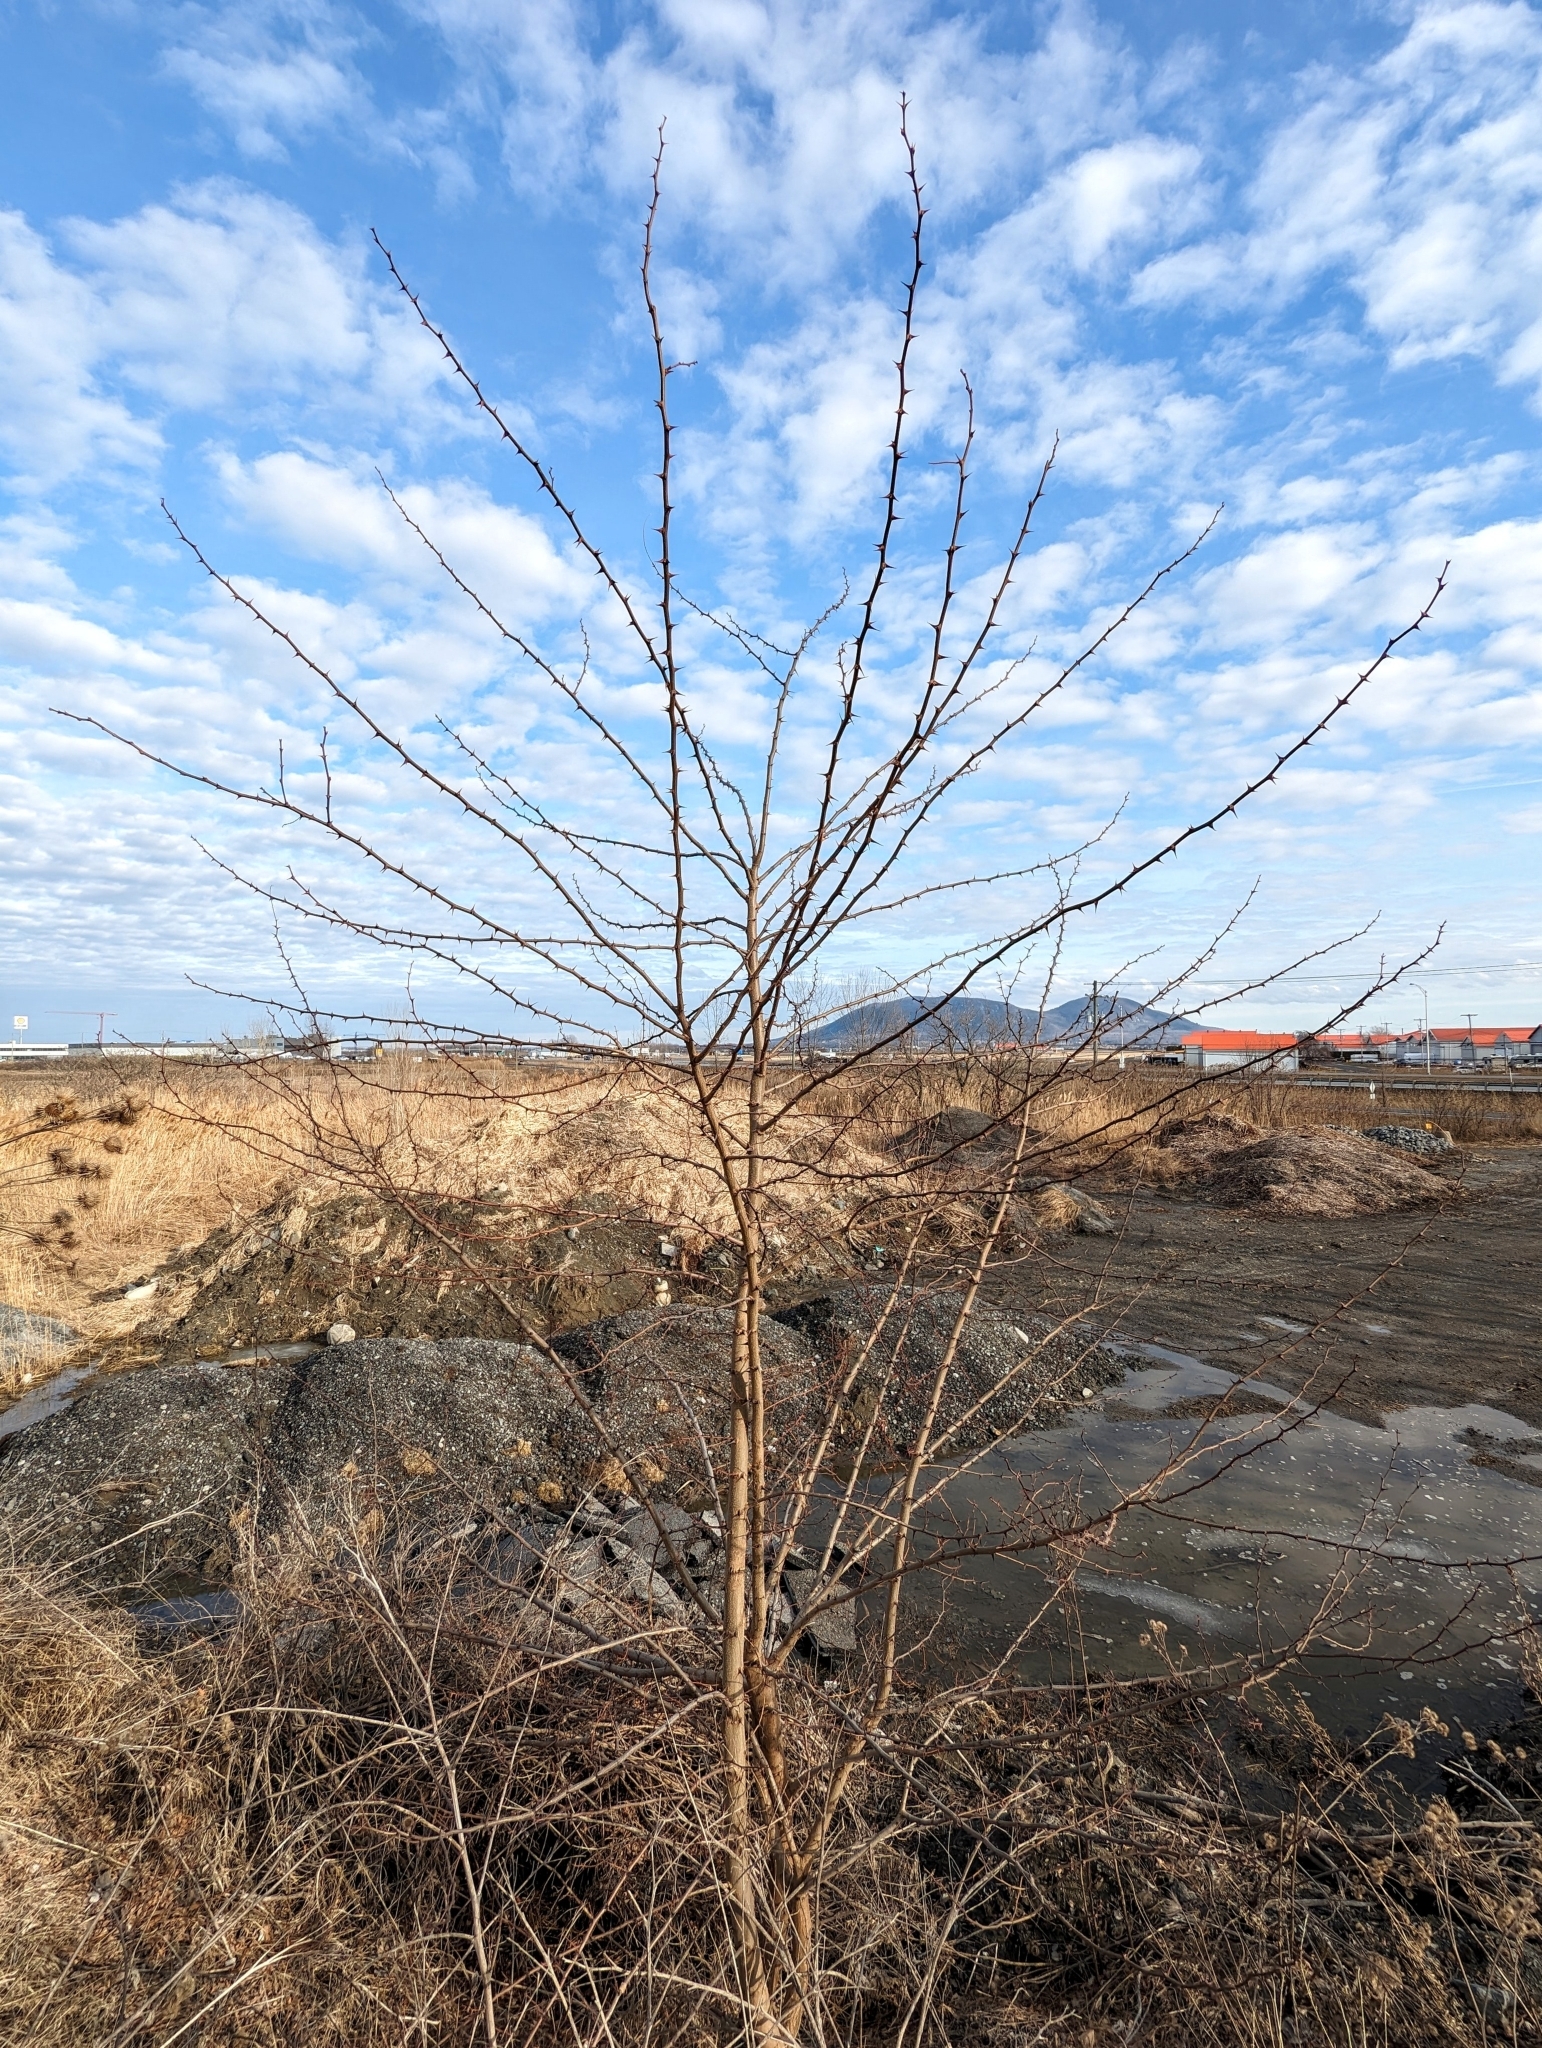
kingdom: Plantae
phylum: Tracheophyta
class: Magnoliopsida
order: Fabales
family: Fabaceae
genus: Robinia
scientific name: Robinia pseudoacacia
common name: Black locust
